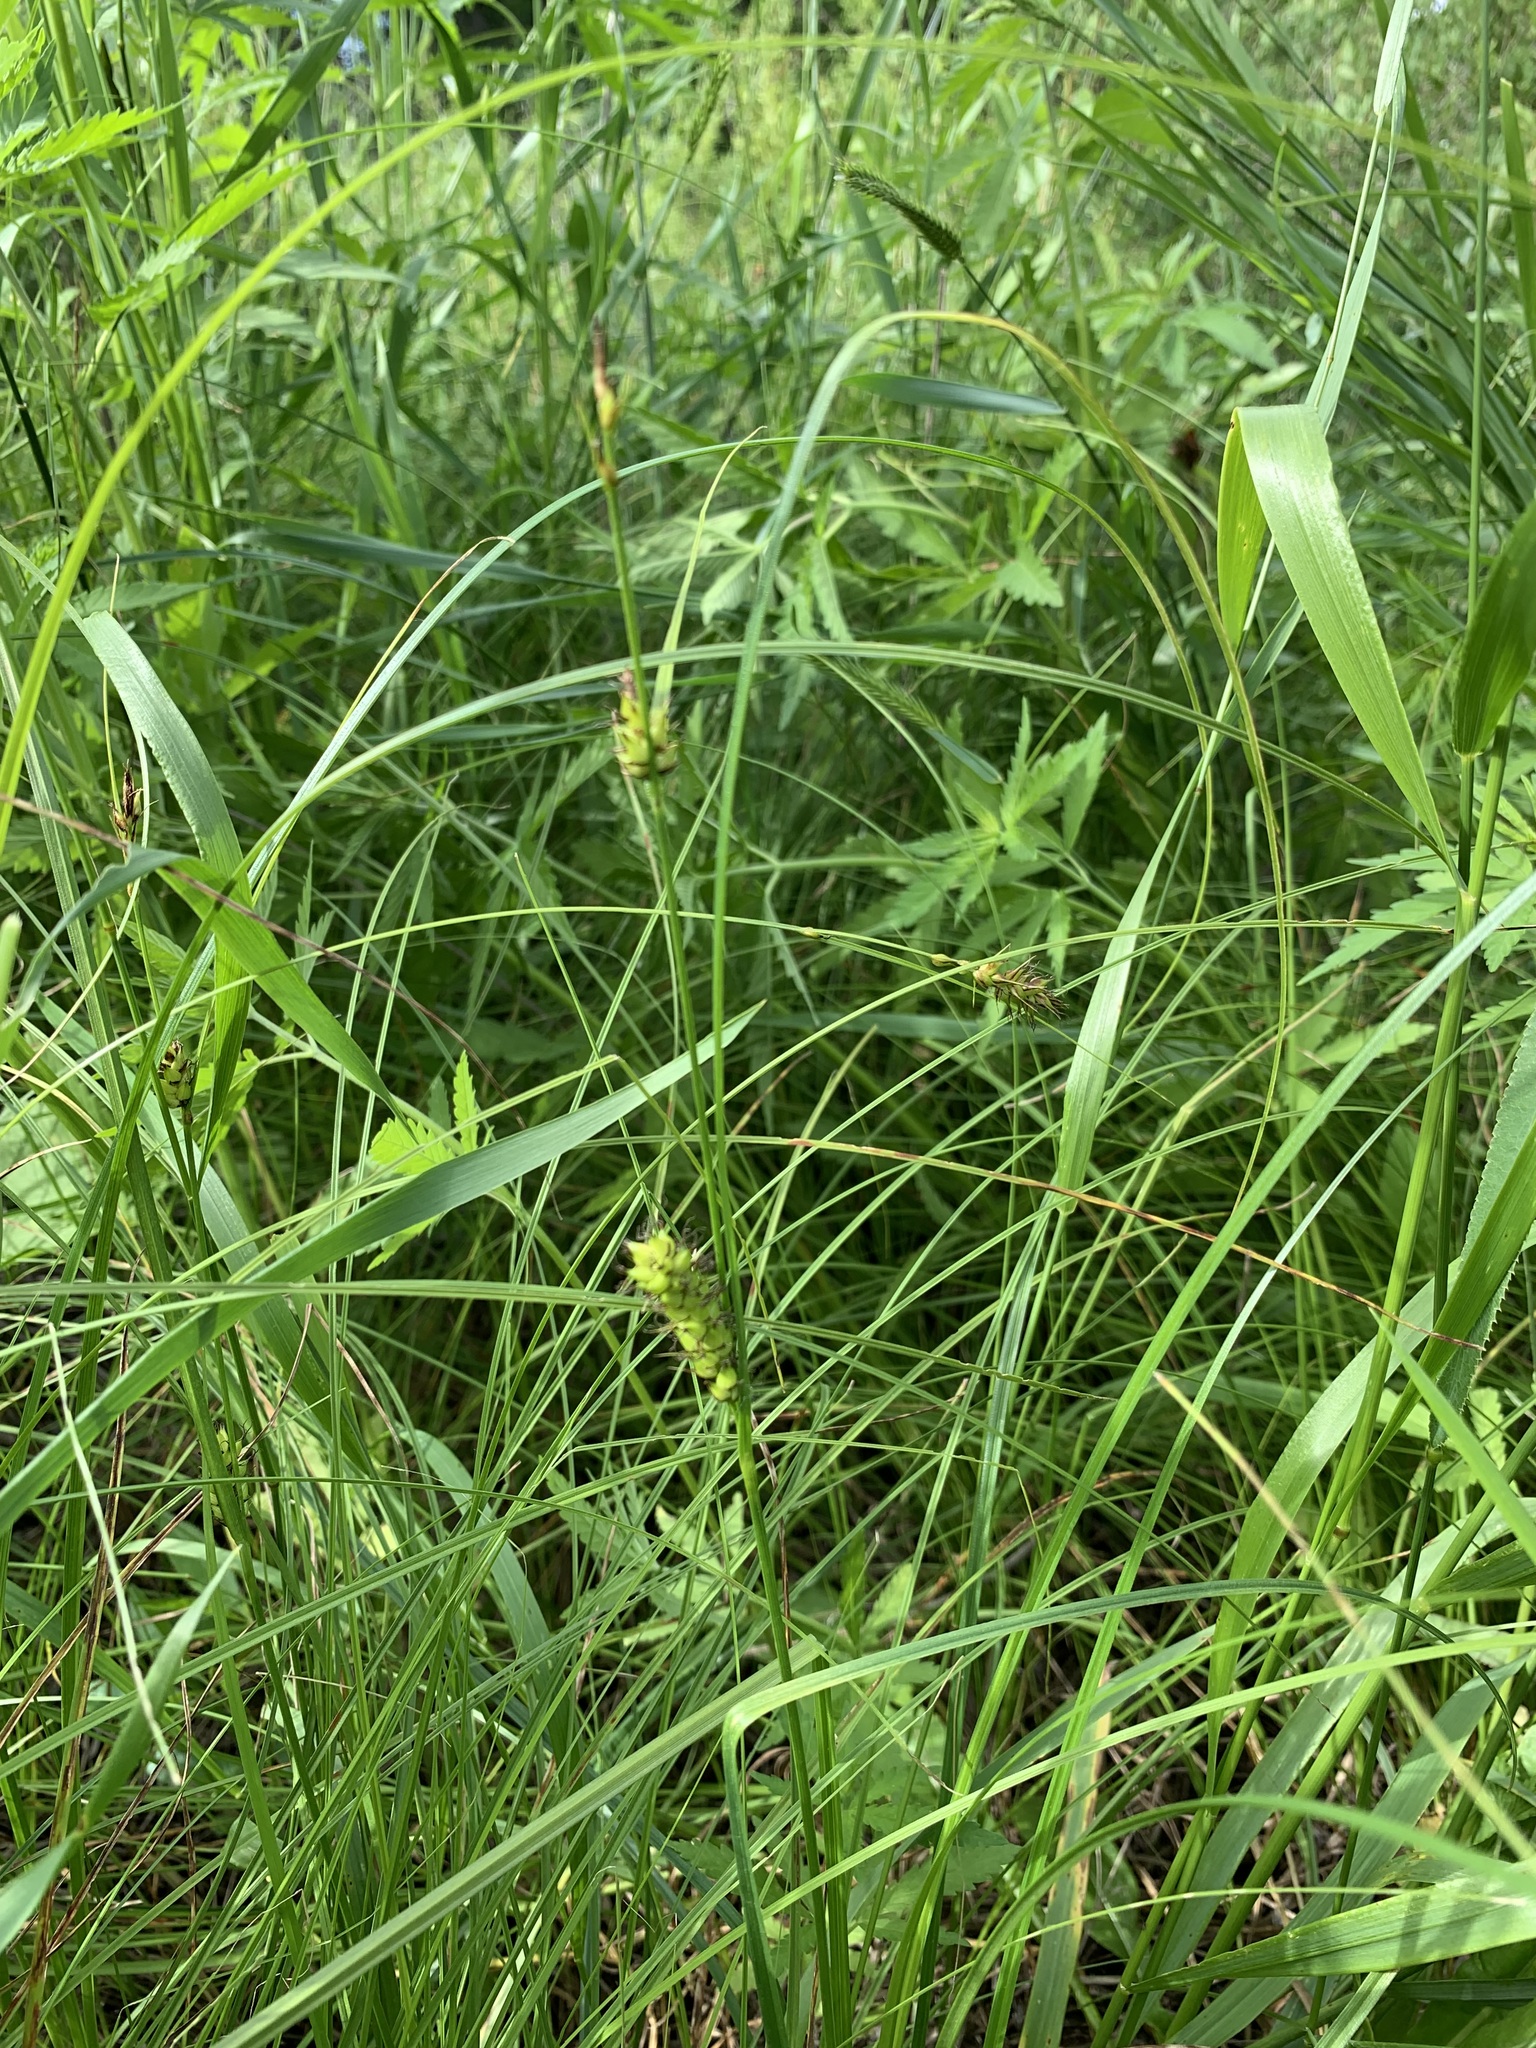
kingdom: Plantae
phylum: Tracheophyta
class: Liliopsida
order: Poales
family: Cyperaceae
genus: Carex
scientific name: Carex melanostachya
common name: Black-spiked sedge
